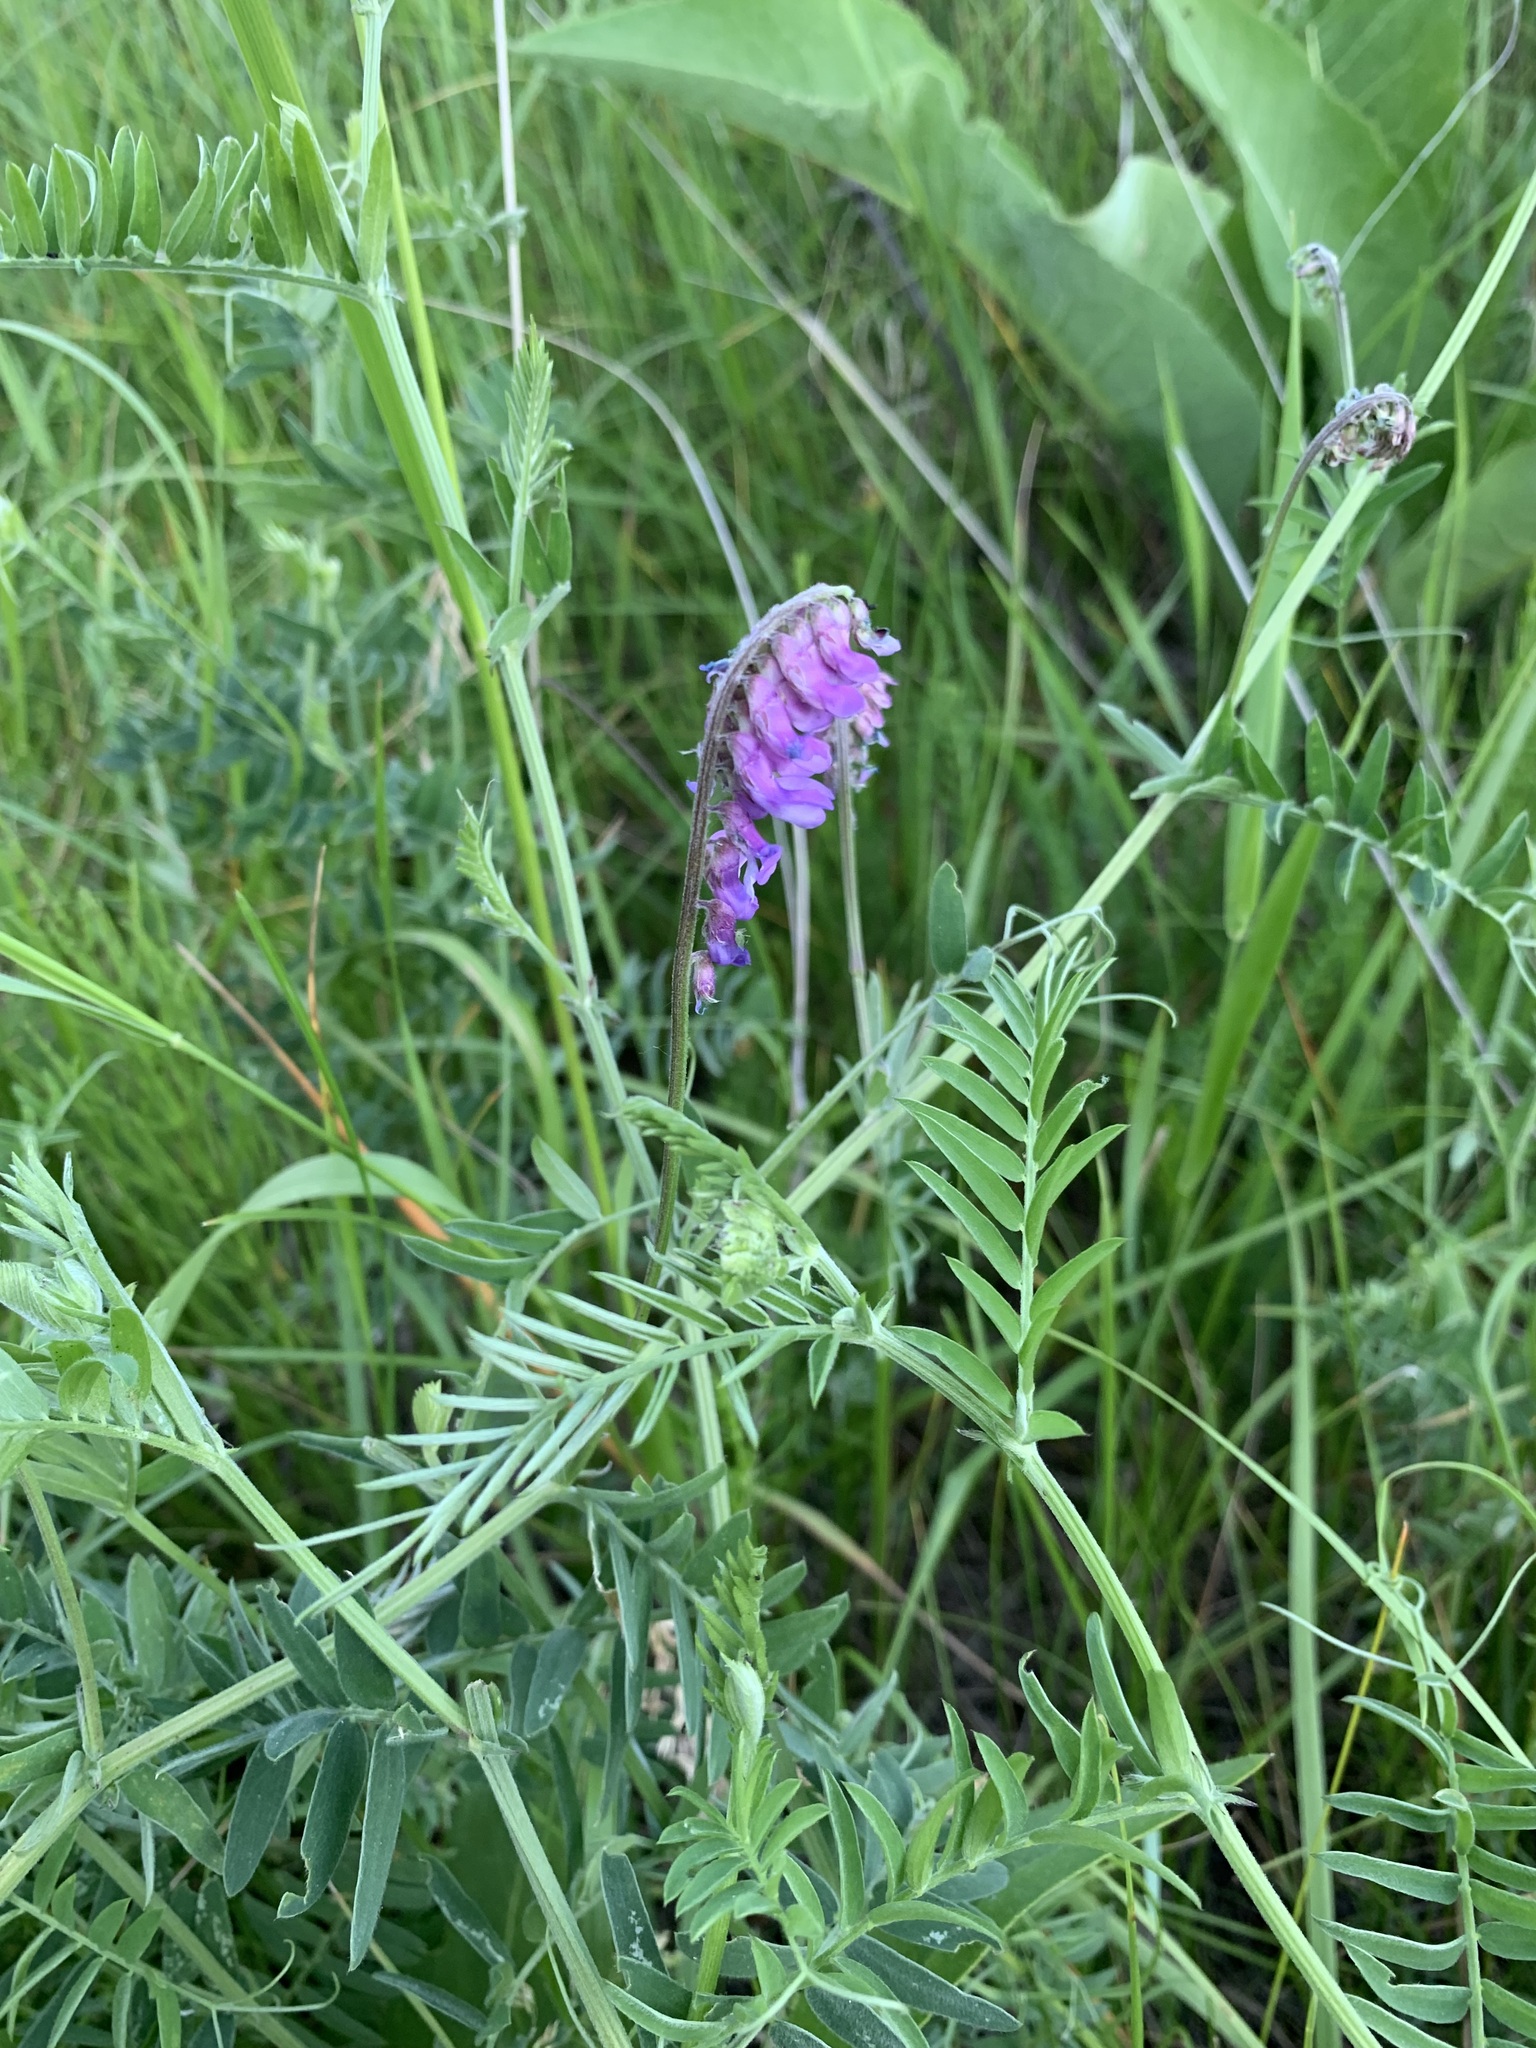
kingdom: Plantae
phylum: Tracheophyta
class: Magnoliopsida
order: Fabales
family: Fabaceae
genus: Vicia
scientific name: Vicia cracca
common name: Bird vetch
